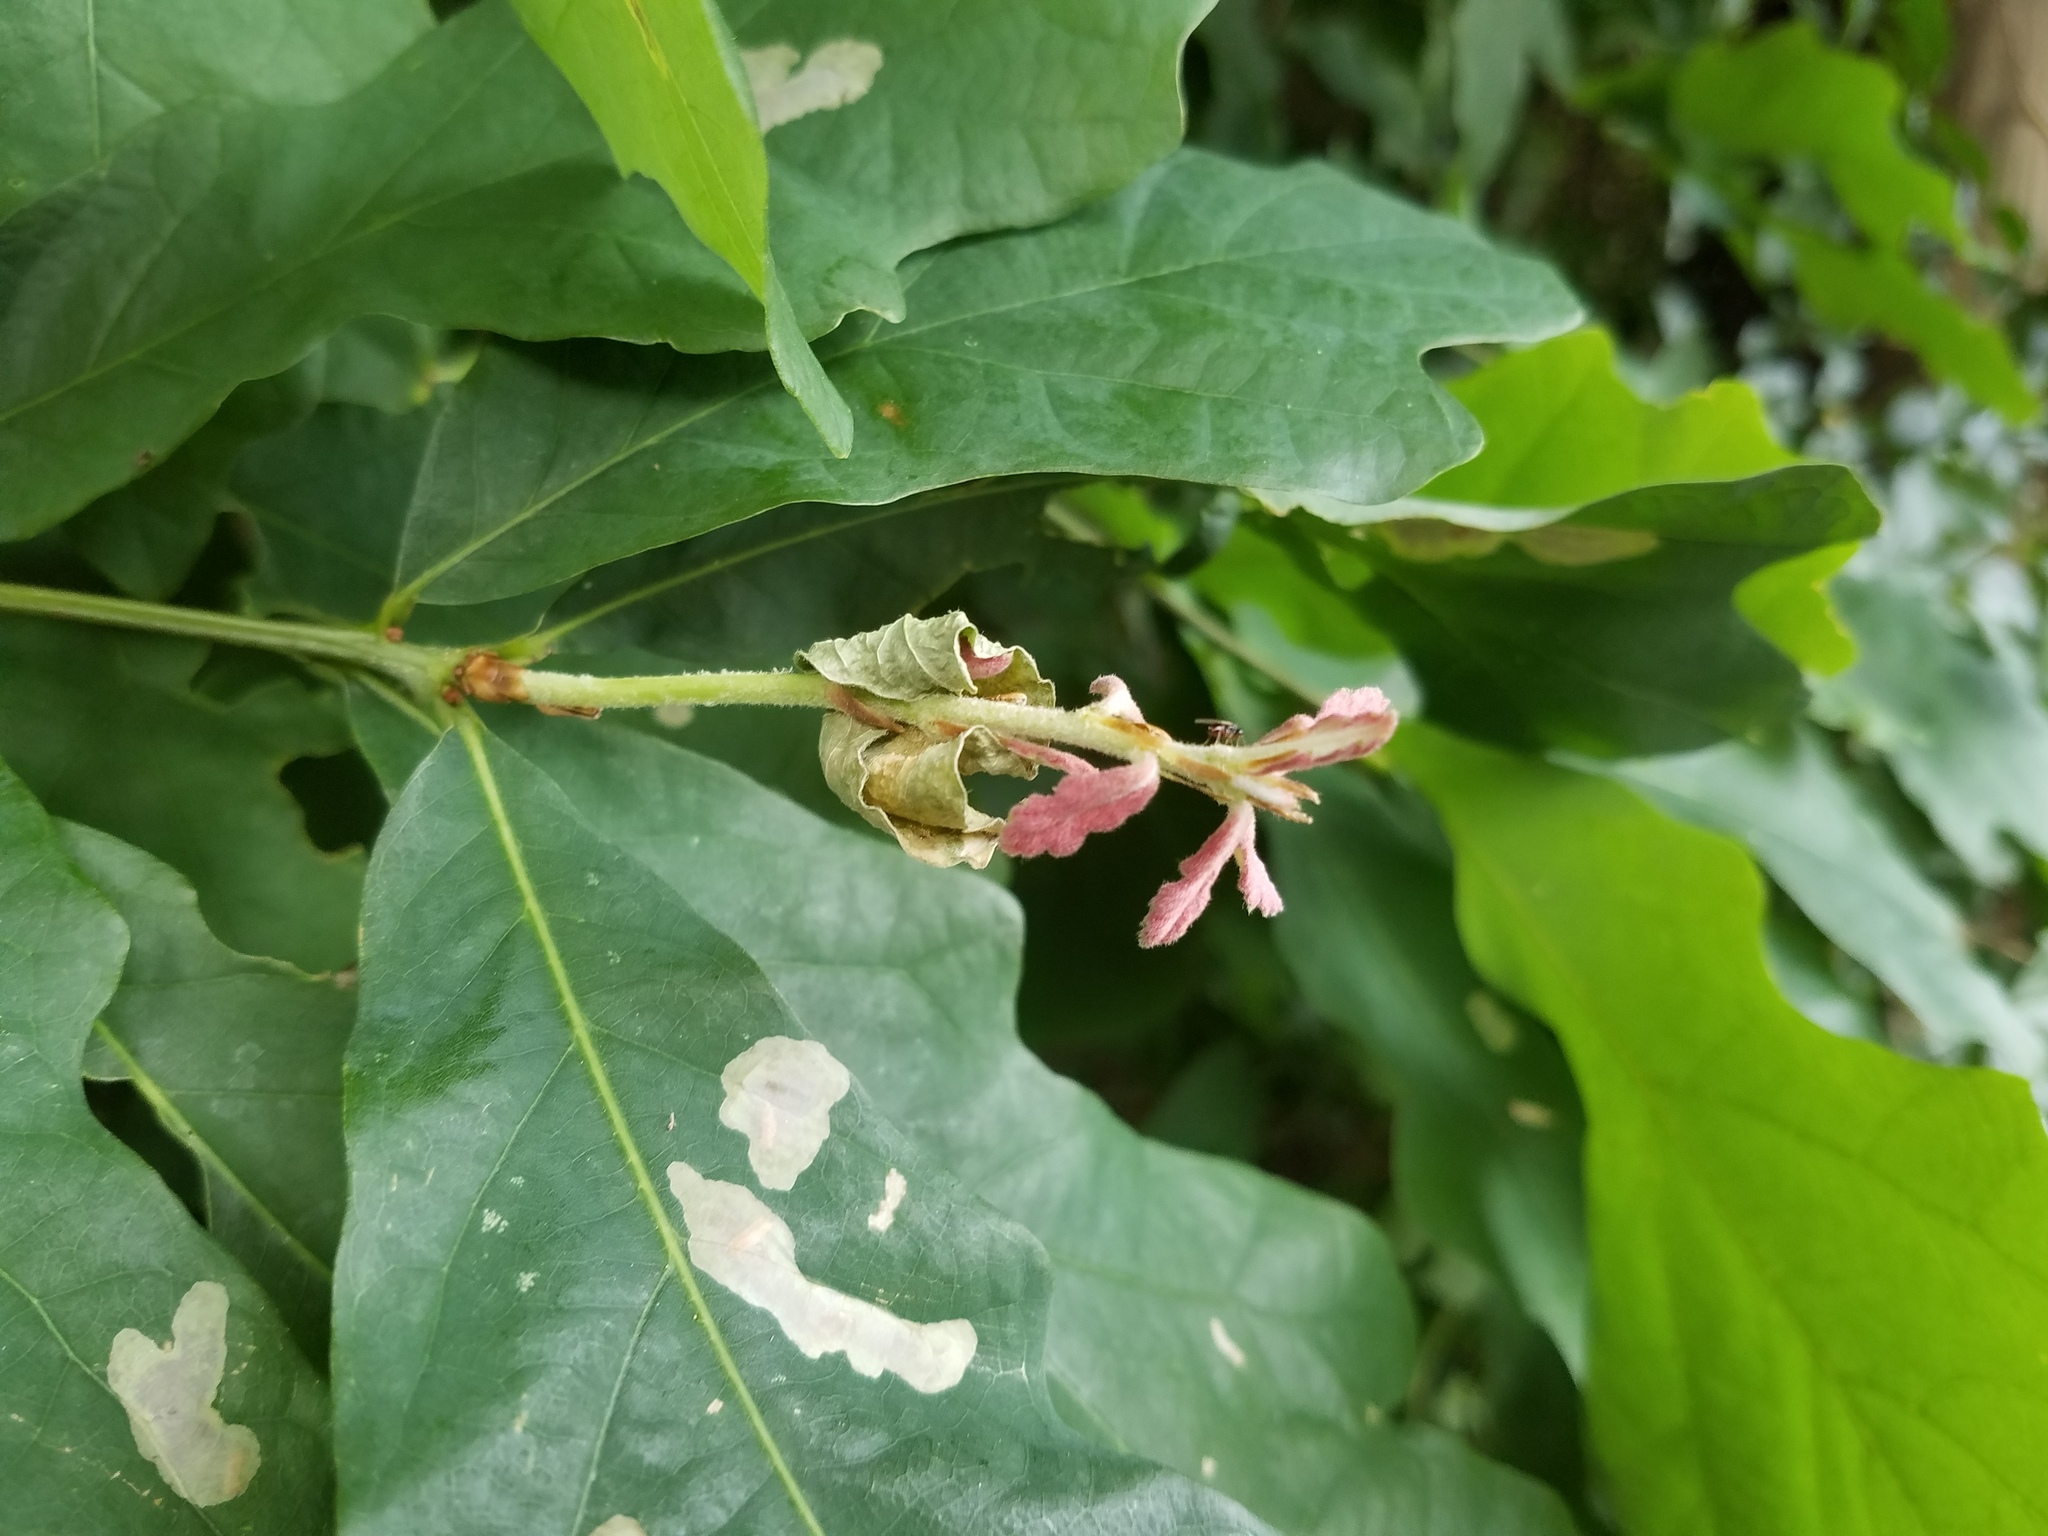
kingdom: Plantae
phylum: Tracheophyta
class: Magnoliopsida
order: Fagales
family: Fagaceae
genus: Quercus
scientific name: Quercus alba
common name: White oak
